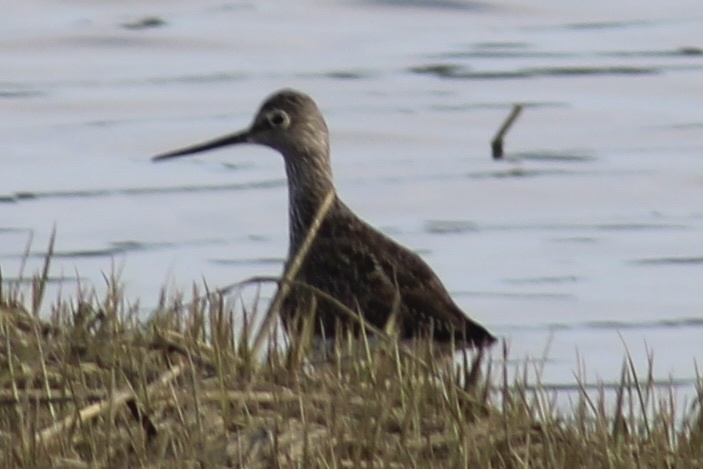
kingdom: Animalia
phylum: Chordata
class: Aves
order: Charadriiformes
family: Scolopacidae
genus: Tringa
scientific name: Tringa melanoleuca
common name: Greater yellowlegs
